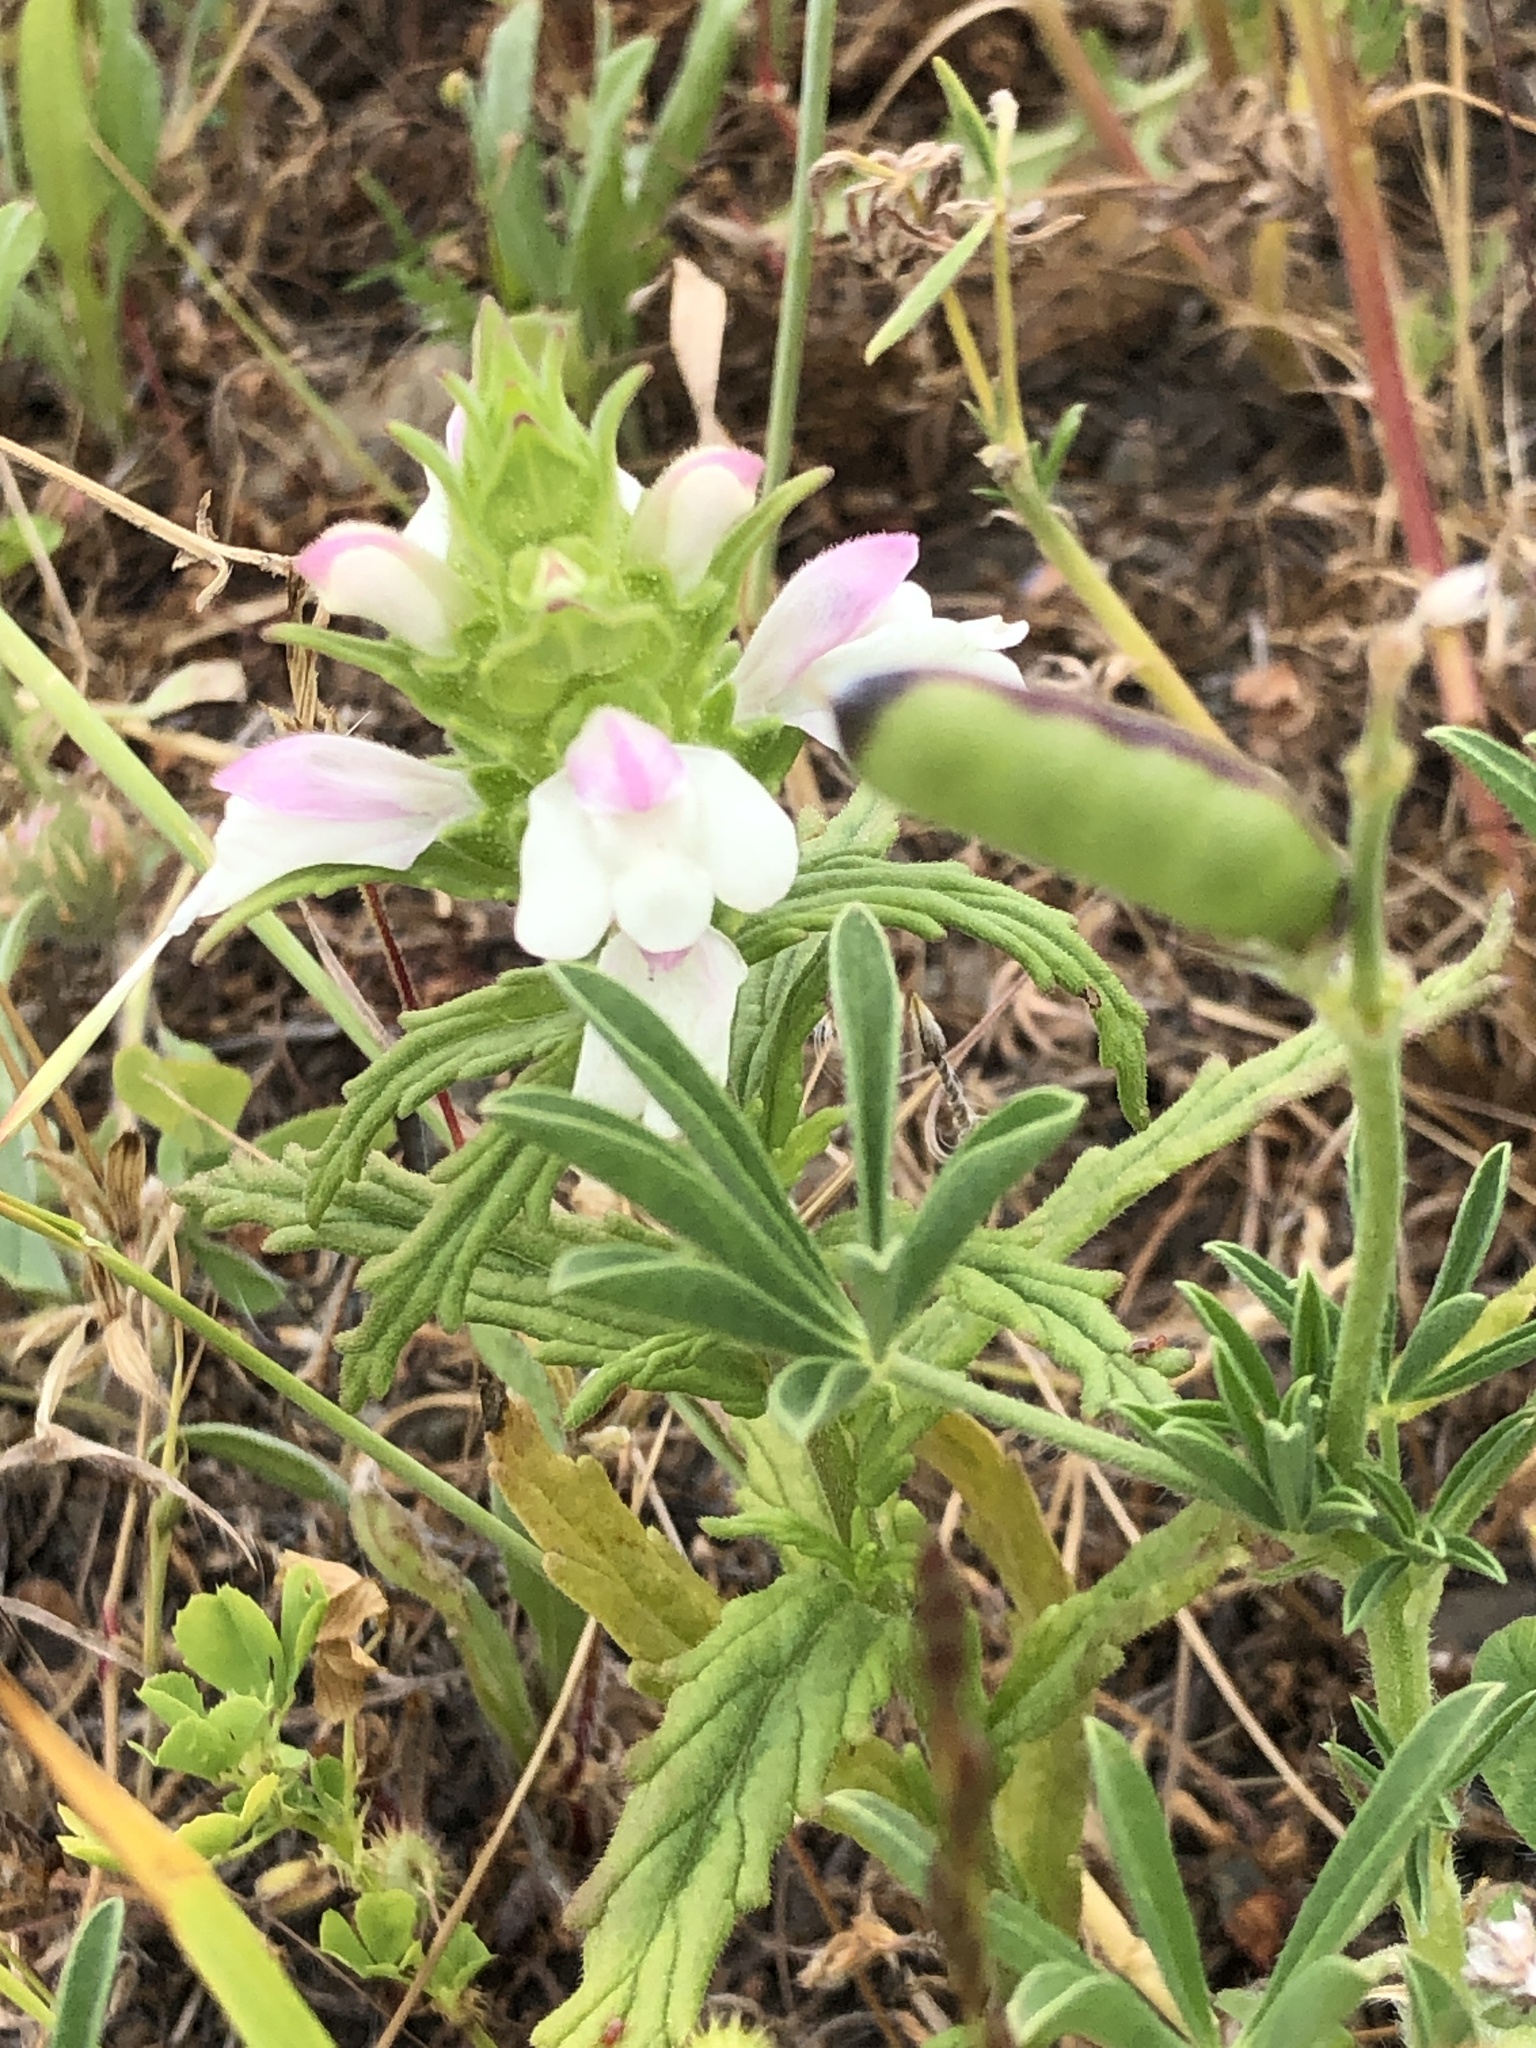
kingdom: Plantae
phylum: Tracheophyta
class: Magnoliopsida
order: Lamiales
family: Orobanchaceae
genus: Bellardia
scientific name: Bellardia trixago
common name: Mediterranean lineseed
